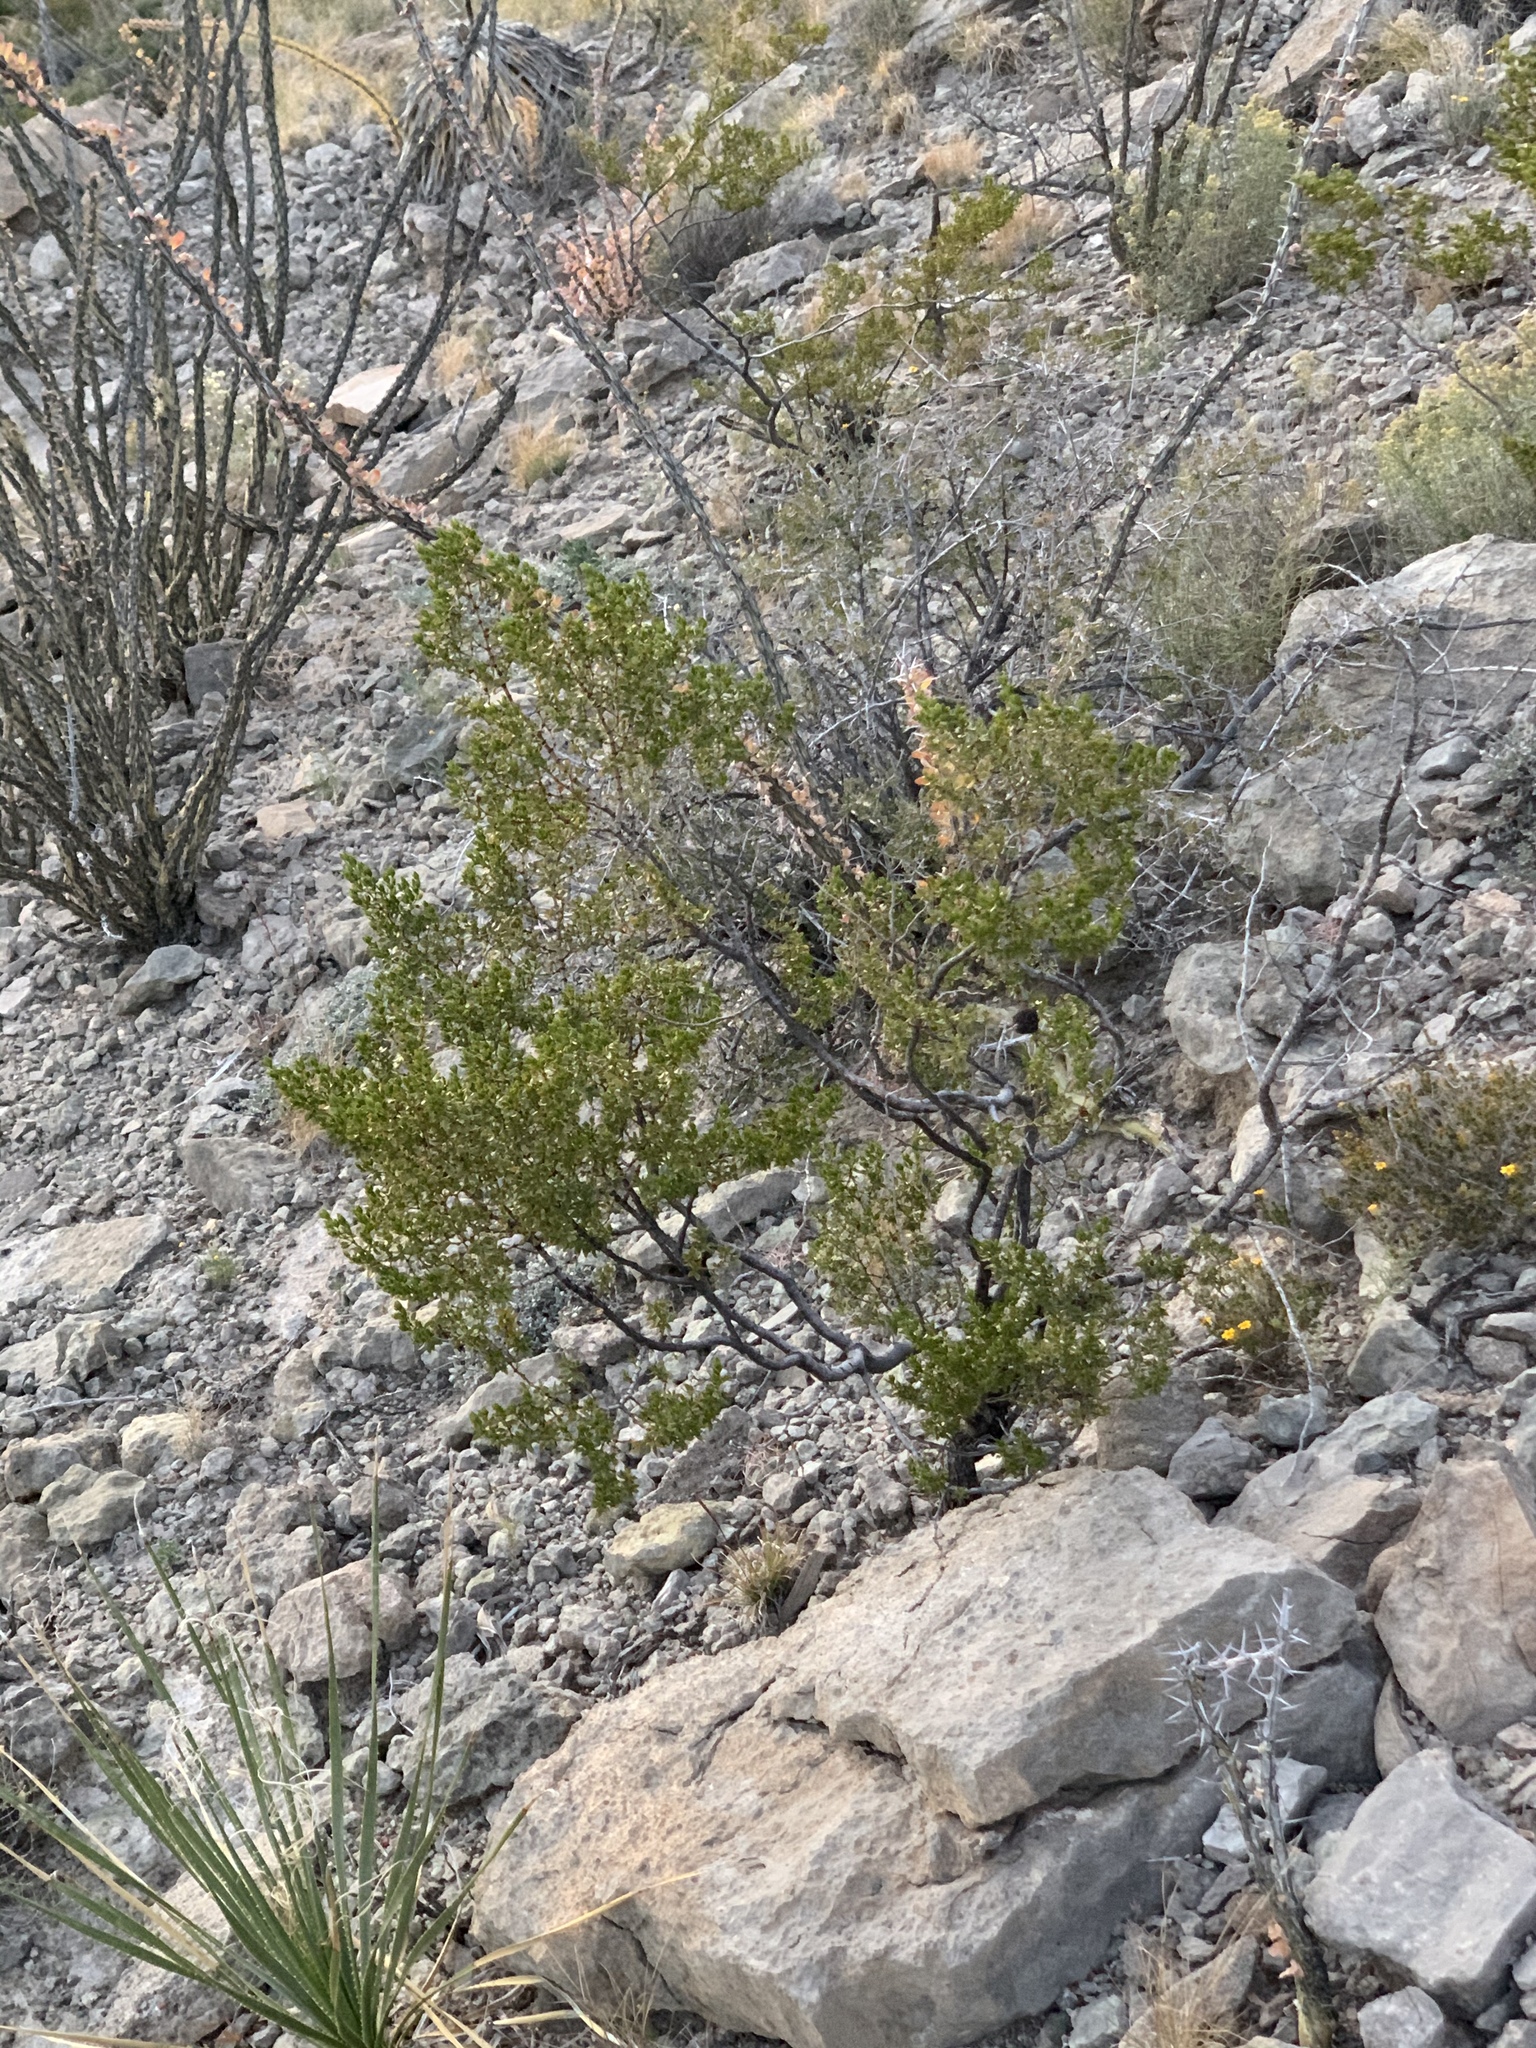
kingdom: Plantae
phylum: Tracheophyta
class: Magnoliopsida
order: Zygophyllales
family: Zygophyllaceae
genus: Larrea
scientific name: Larrea tridentata
